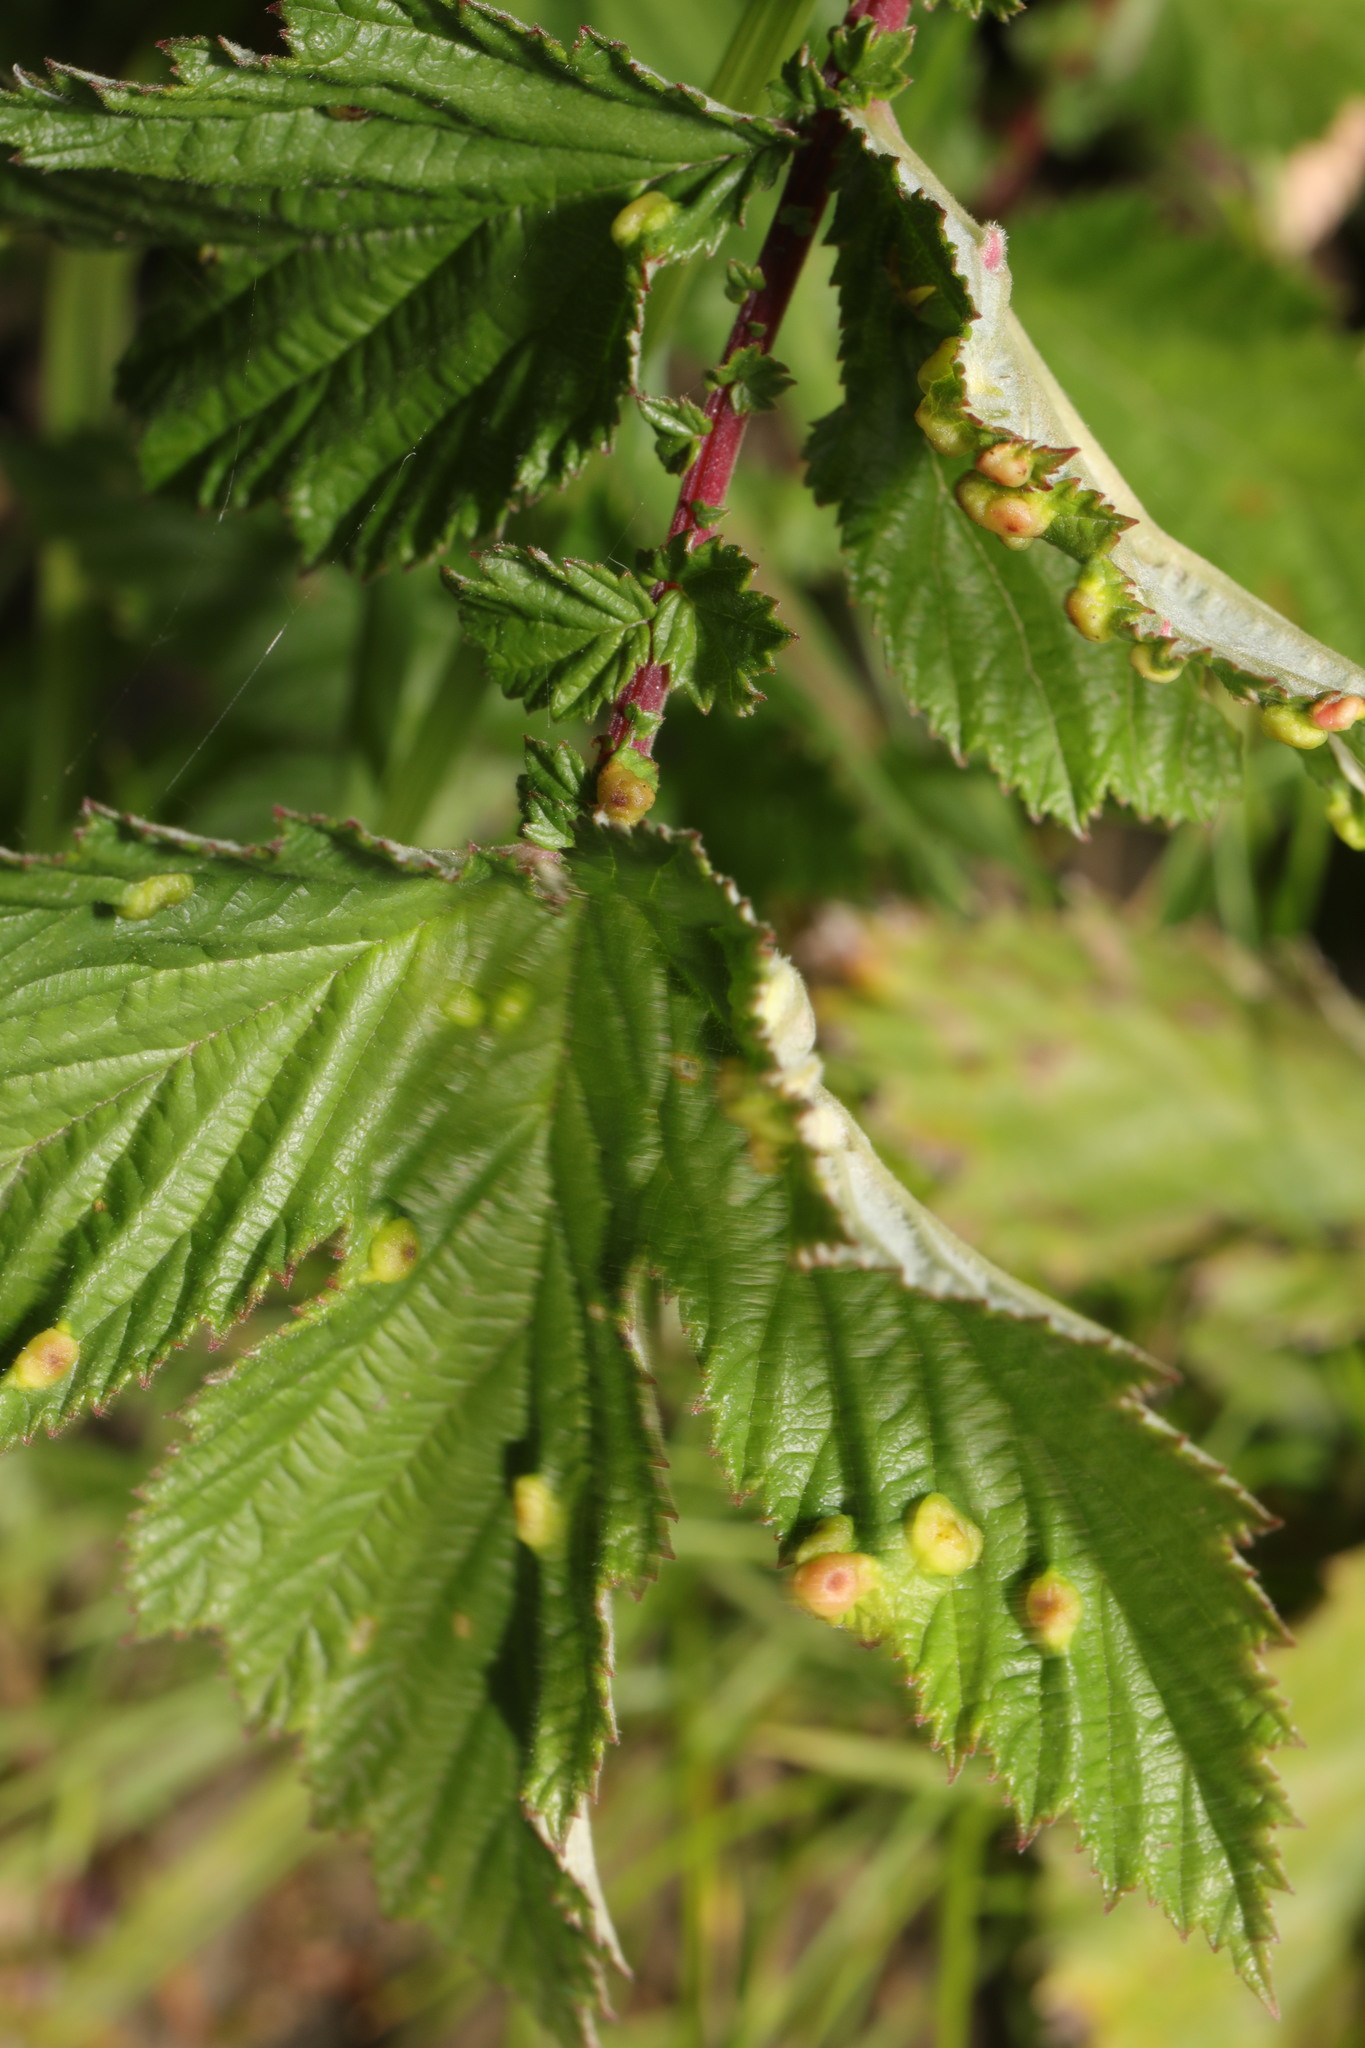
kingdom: Plantae
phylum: Tracheophyta
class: Magnoliopsida
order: Rosales
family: Rosaceae
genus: Filipendula
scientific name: Filipendula ulmaria
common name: Meadowsweet
